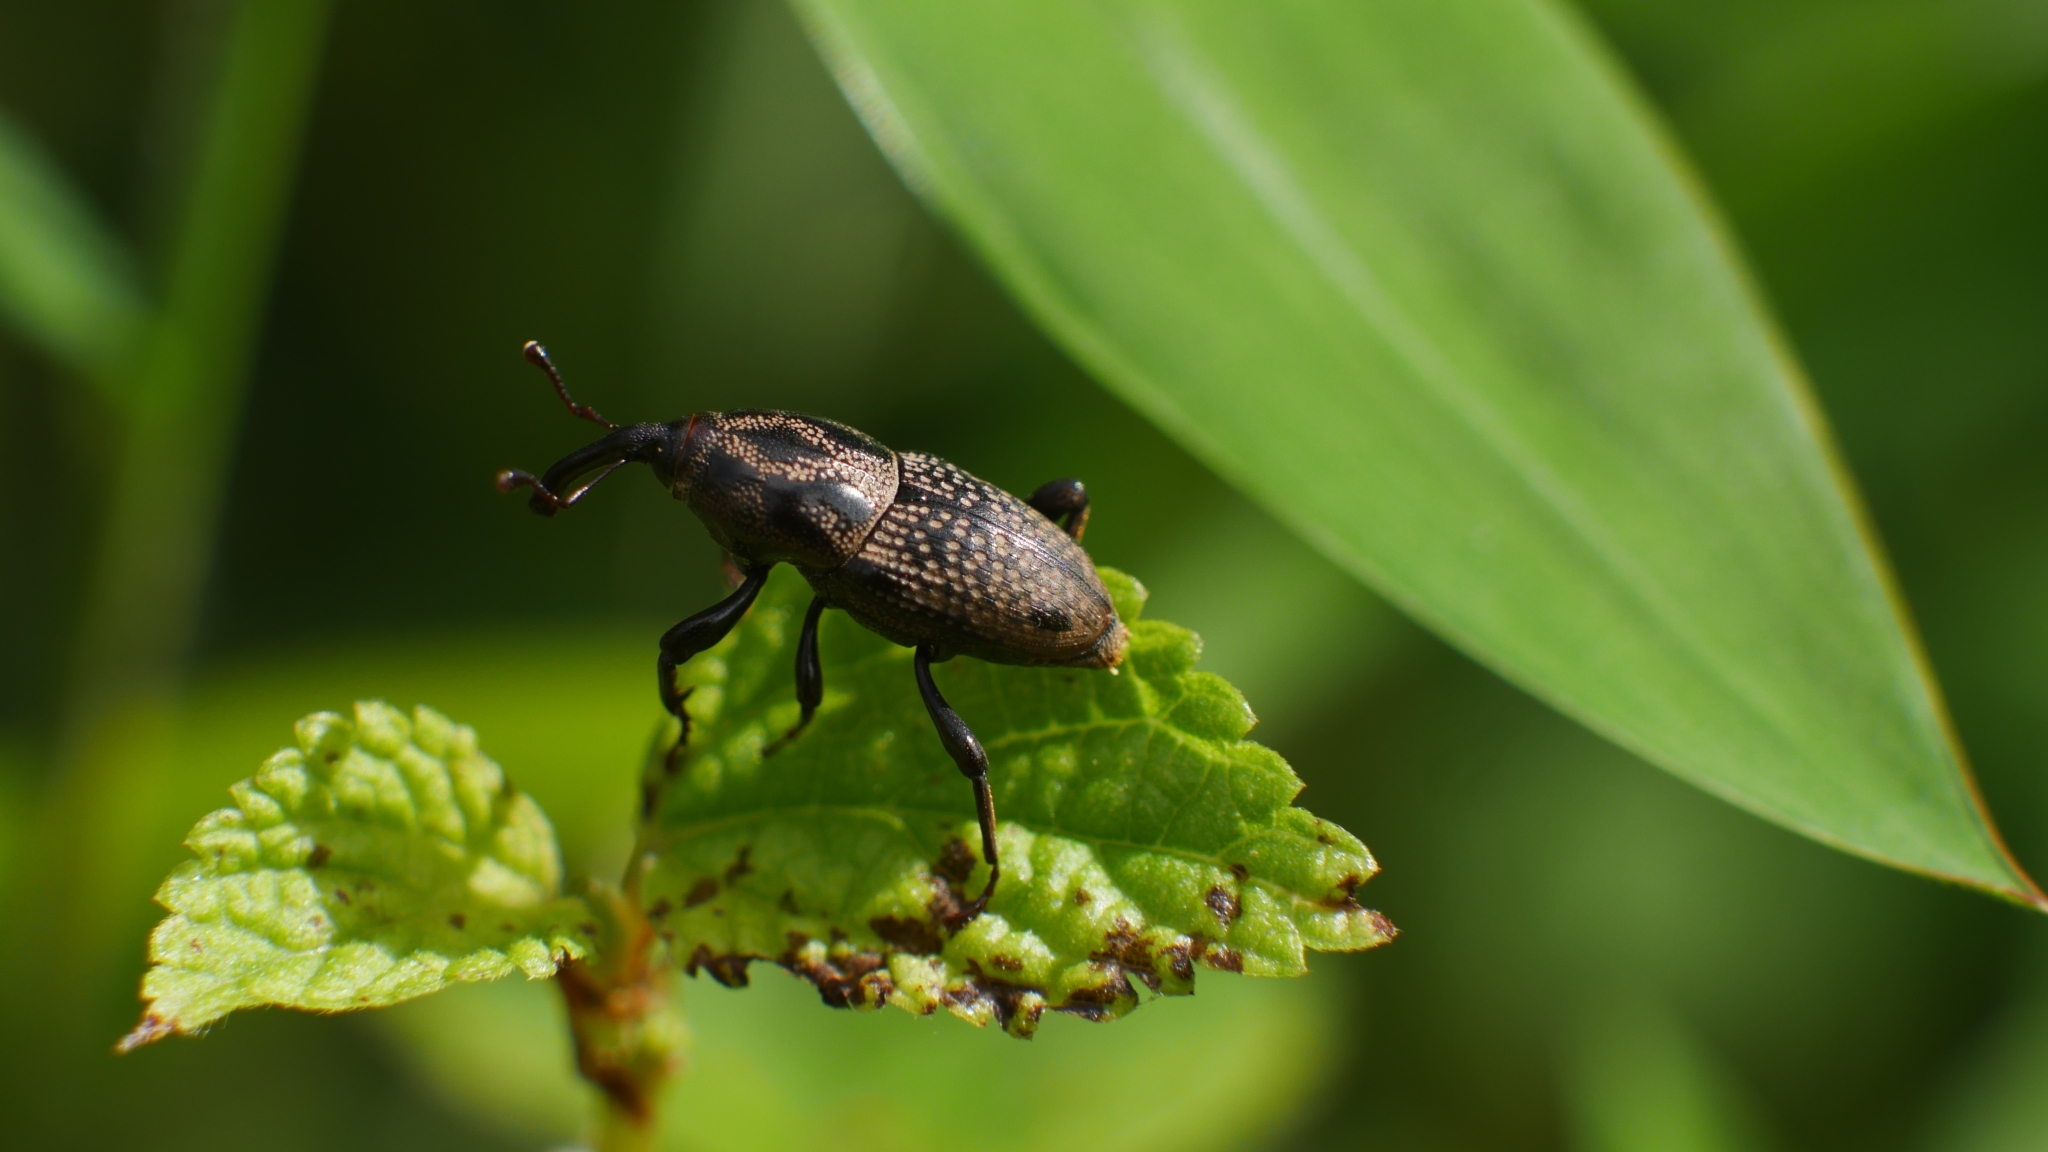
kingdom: Animalia
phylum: Arthropoda
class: Insecta
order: Coleoptera
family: Dryophthoridae
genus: Sphenophorus
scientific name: Sphenophorus zeae
